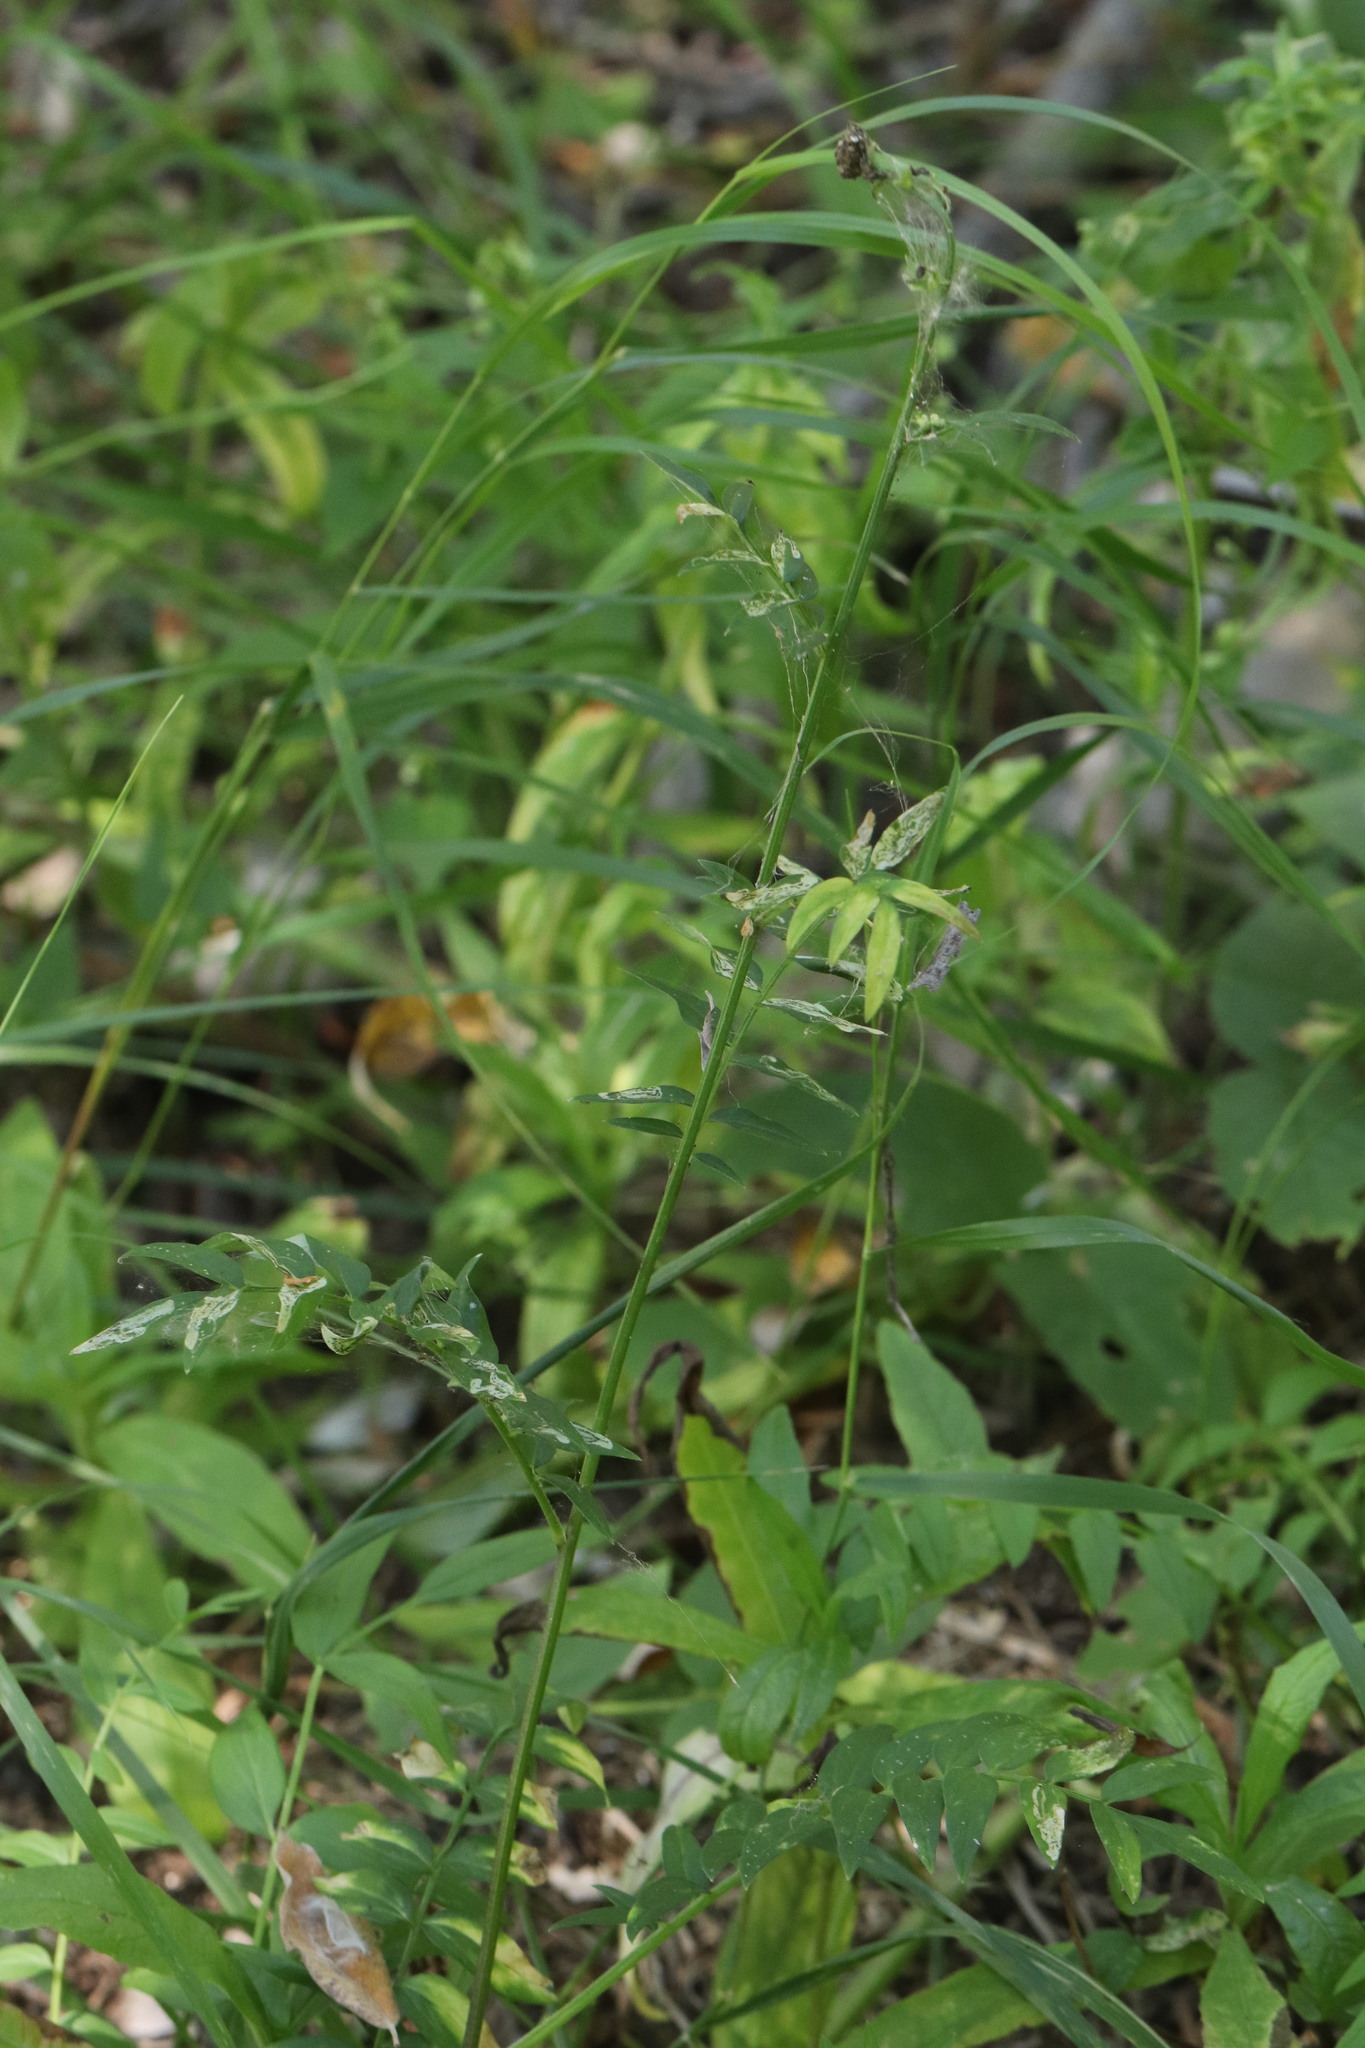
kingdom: Plantae
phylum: Tracheophyta
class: Magnoliopsida
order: Ericales
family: Polemoniaceae
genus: Polemonium
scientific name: Polemonium caeruleum
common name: Jacob's-ladder
